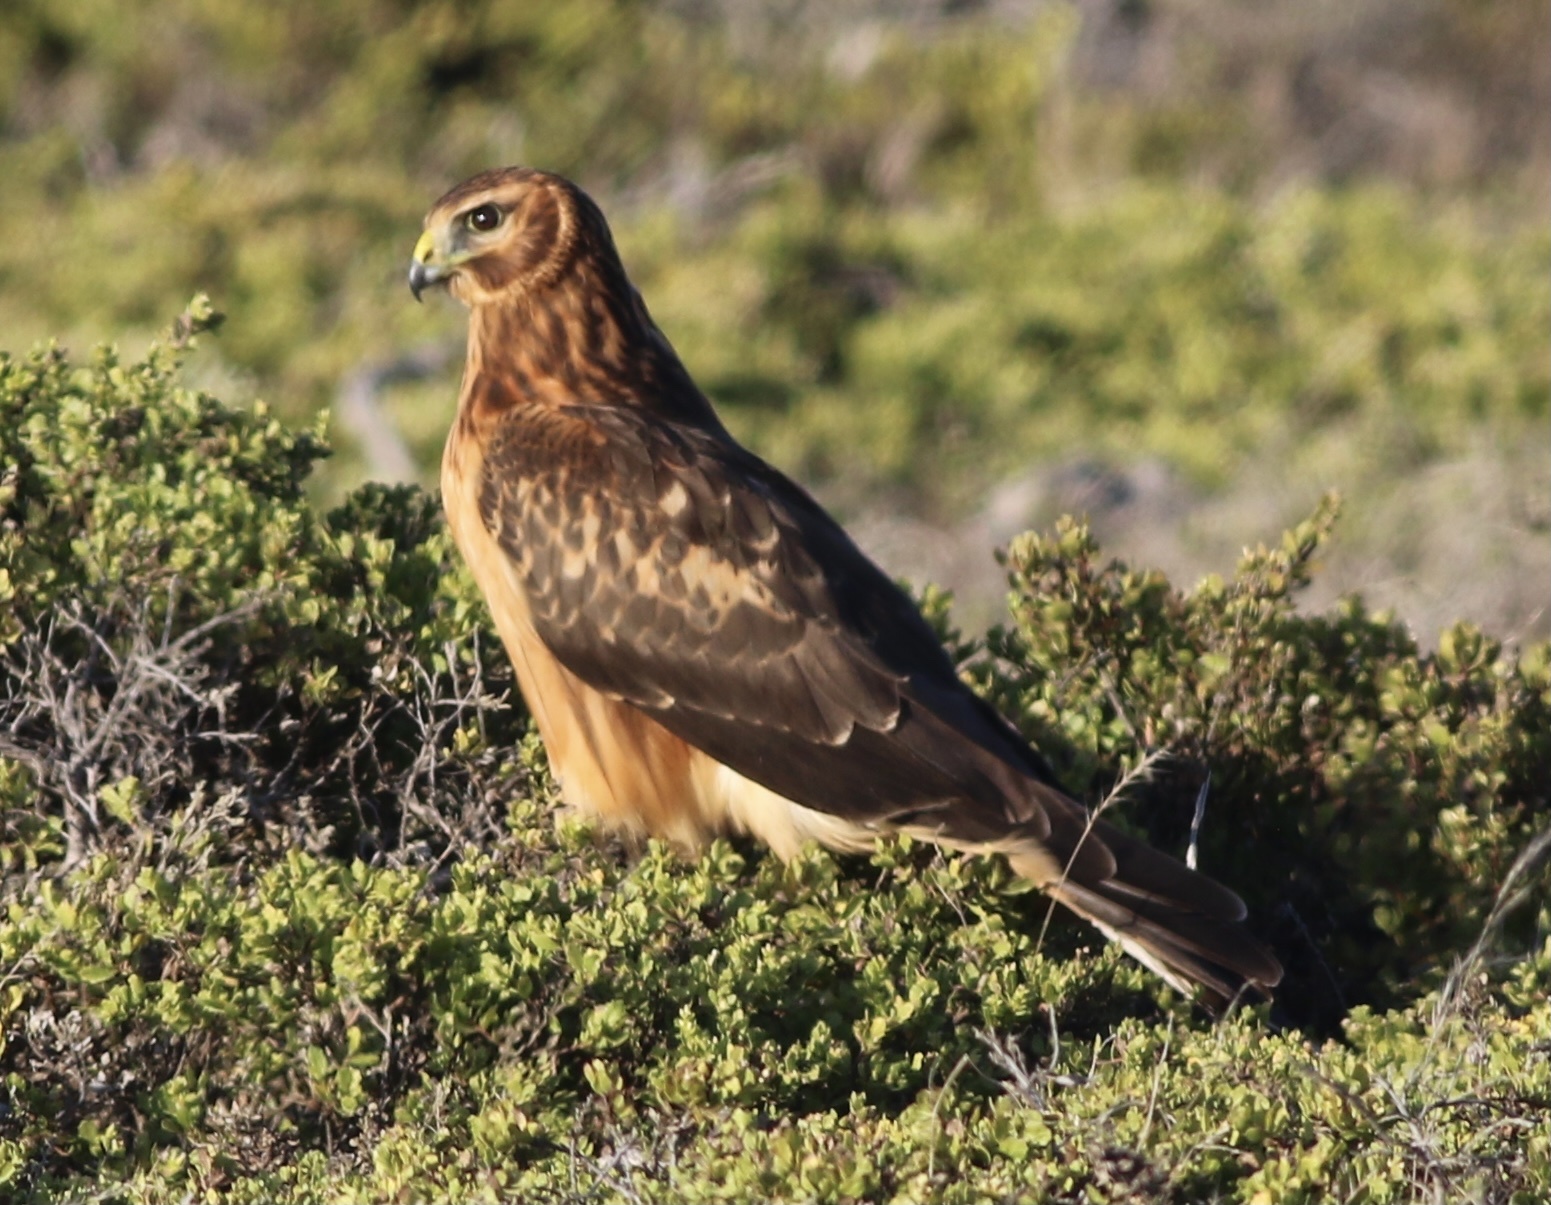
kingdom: Animalia
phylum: Chordata
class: Aves
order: Accipitriformes
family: Accipitridae
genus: Circus
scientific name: Circus cyaneus
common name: Hen harrier
